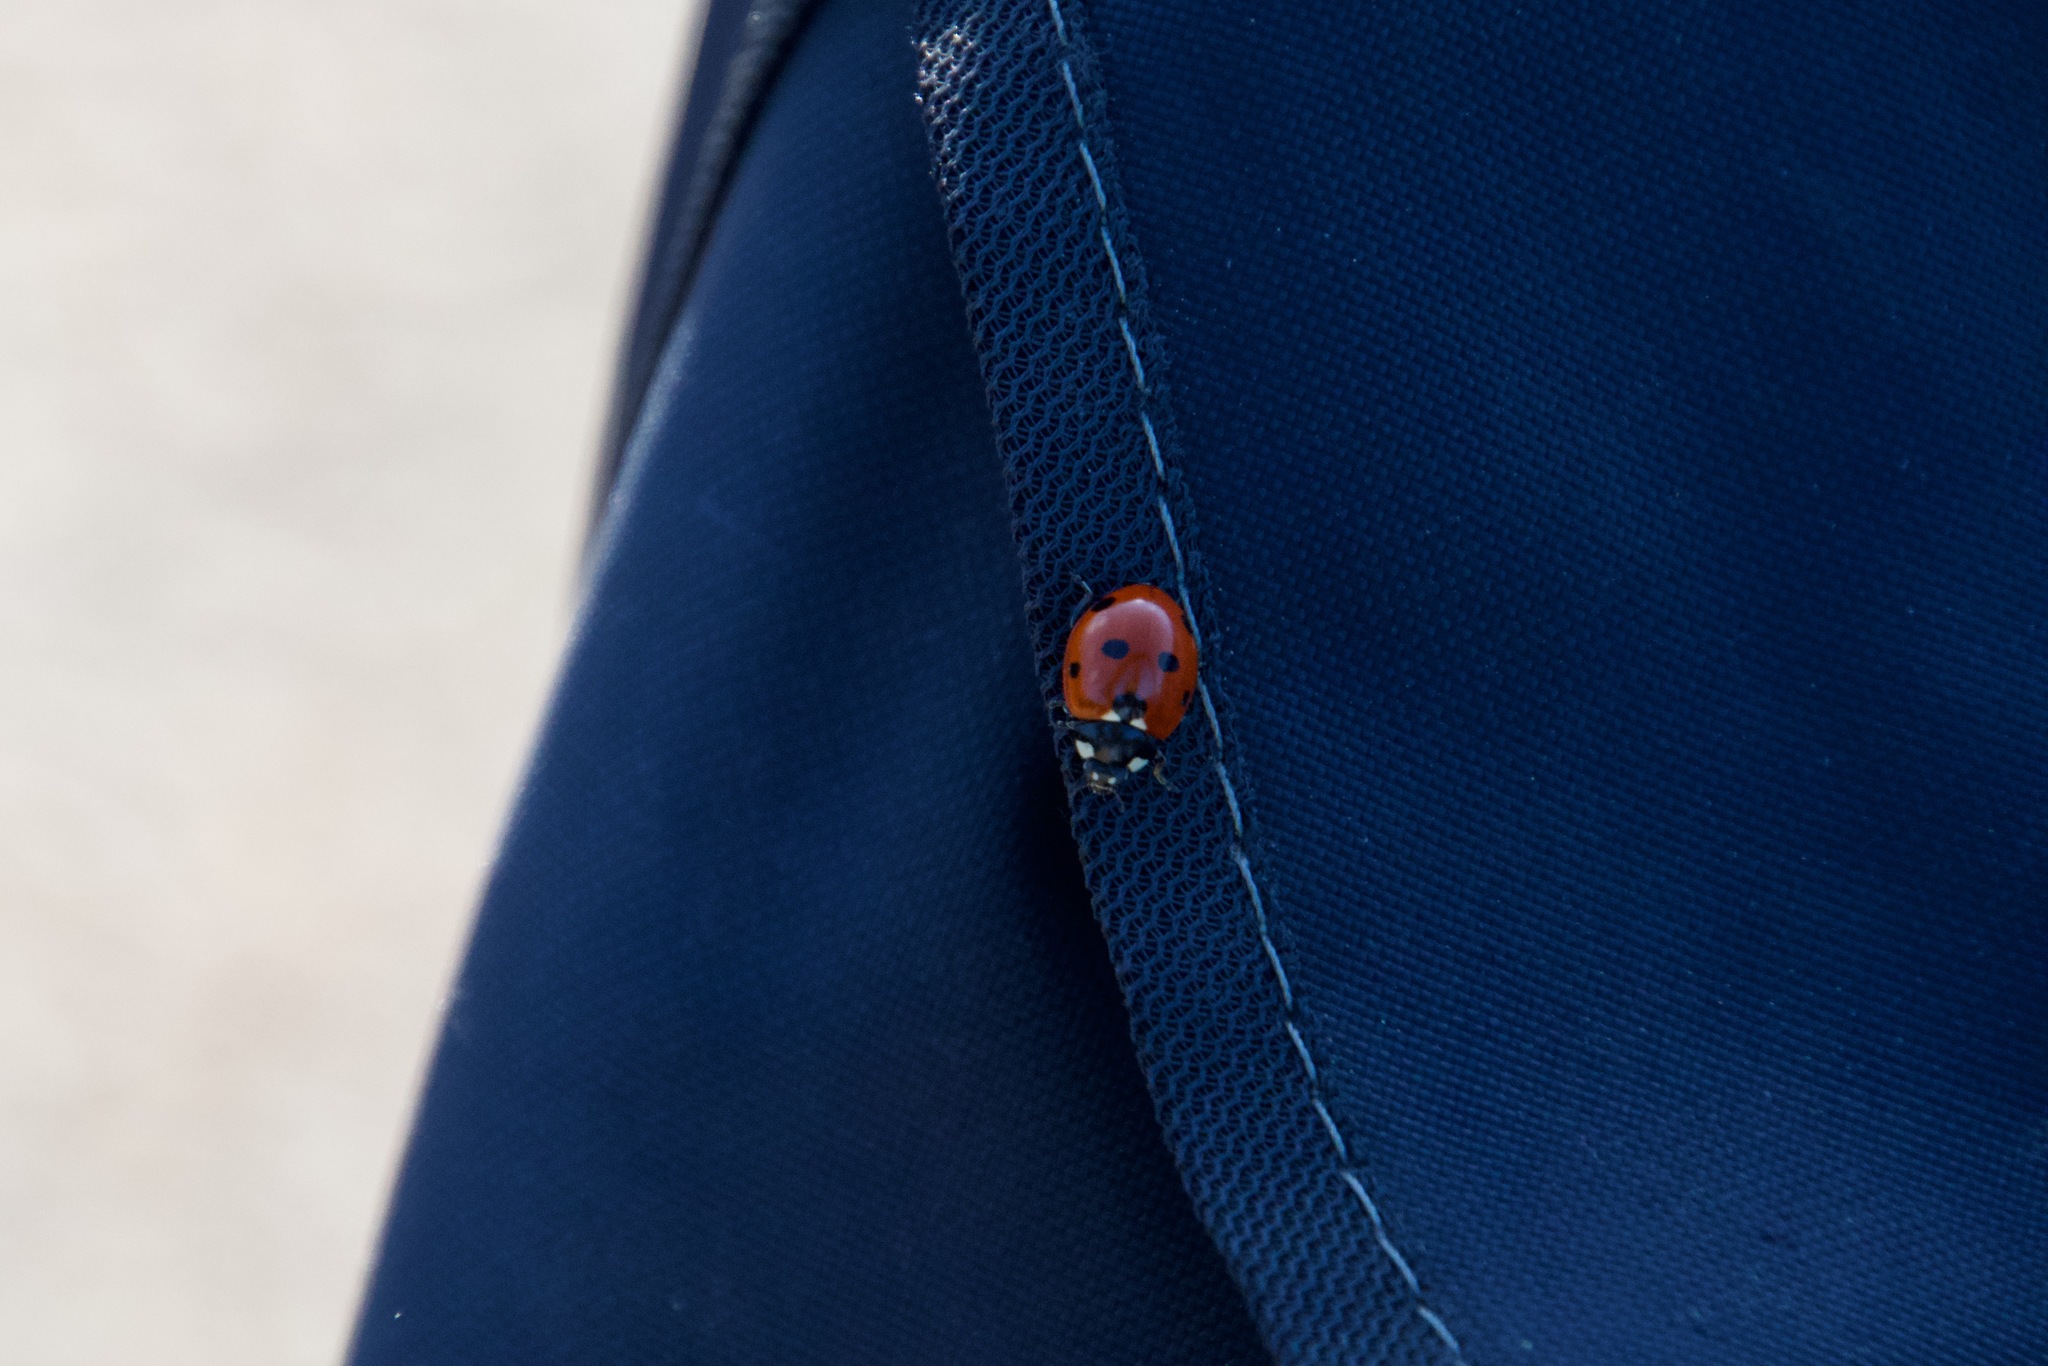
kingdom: Animalia
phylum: Arthropoda
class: Insecta
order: Coleoptera
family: Coccinellidae
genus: Coccinella
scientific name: Coccinella septempunctata
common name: Sevenspotted lady beetle
